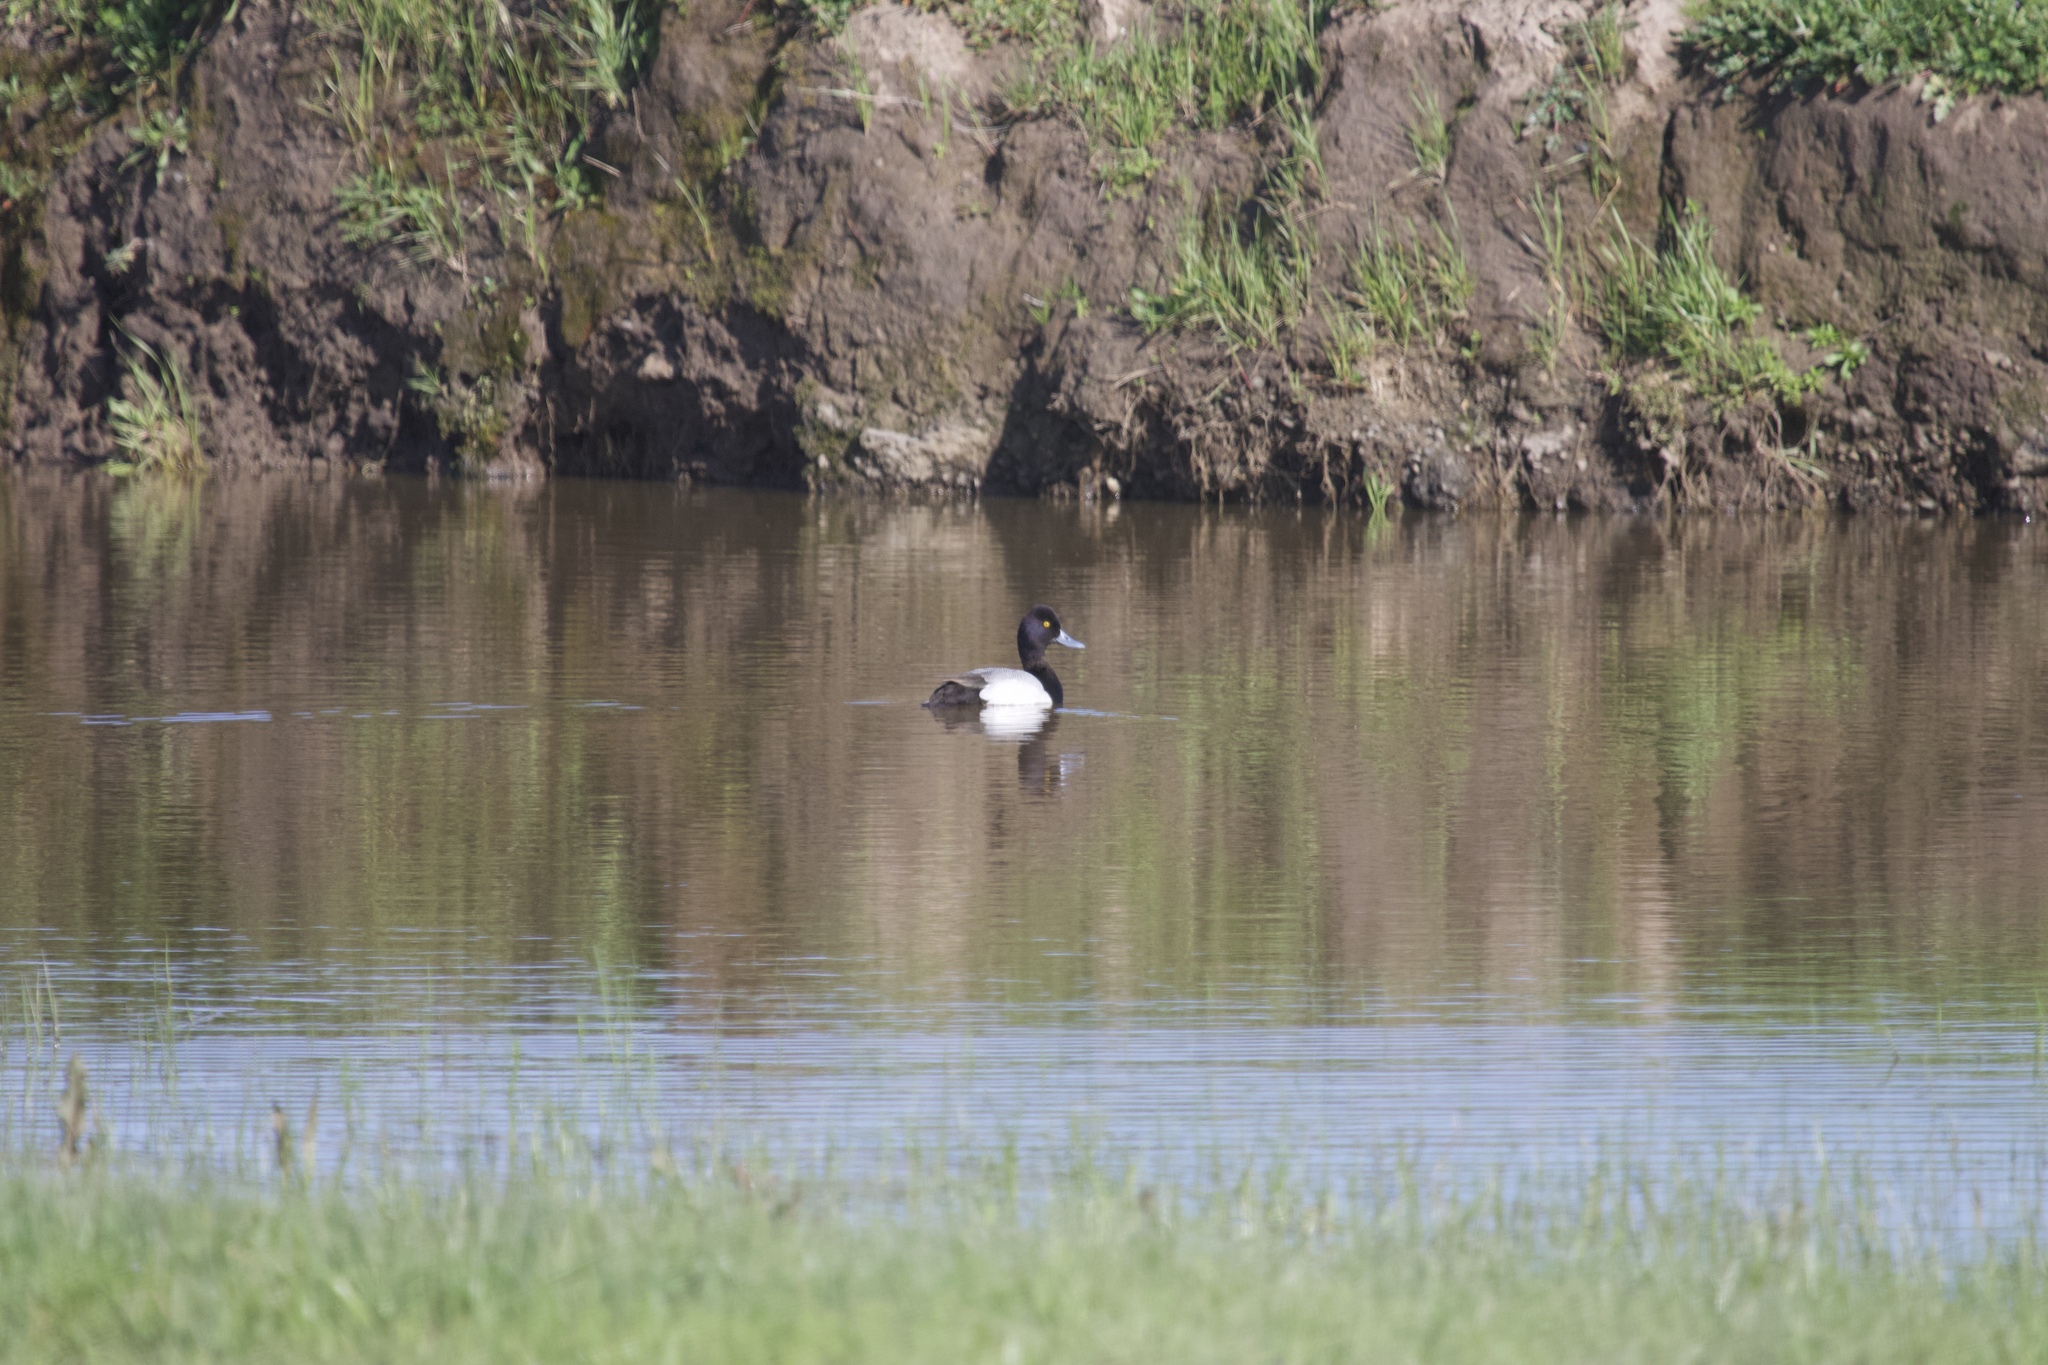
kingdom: Animalia
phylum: Chordata
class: Aves
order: Anseriformes
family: Anatidae
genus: Aythya
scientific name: Aythya affinis
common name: Lesser scaup
